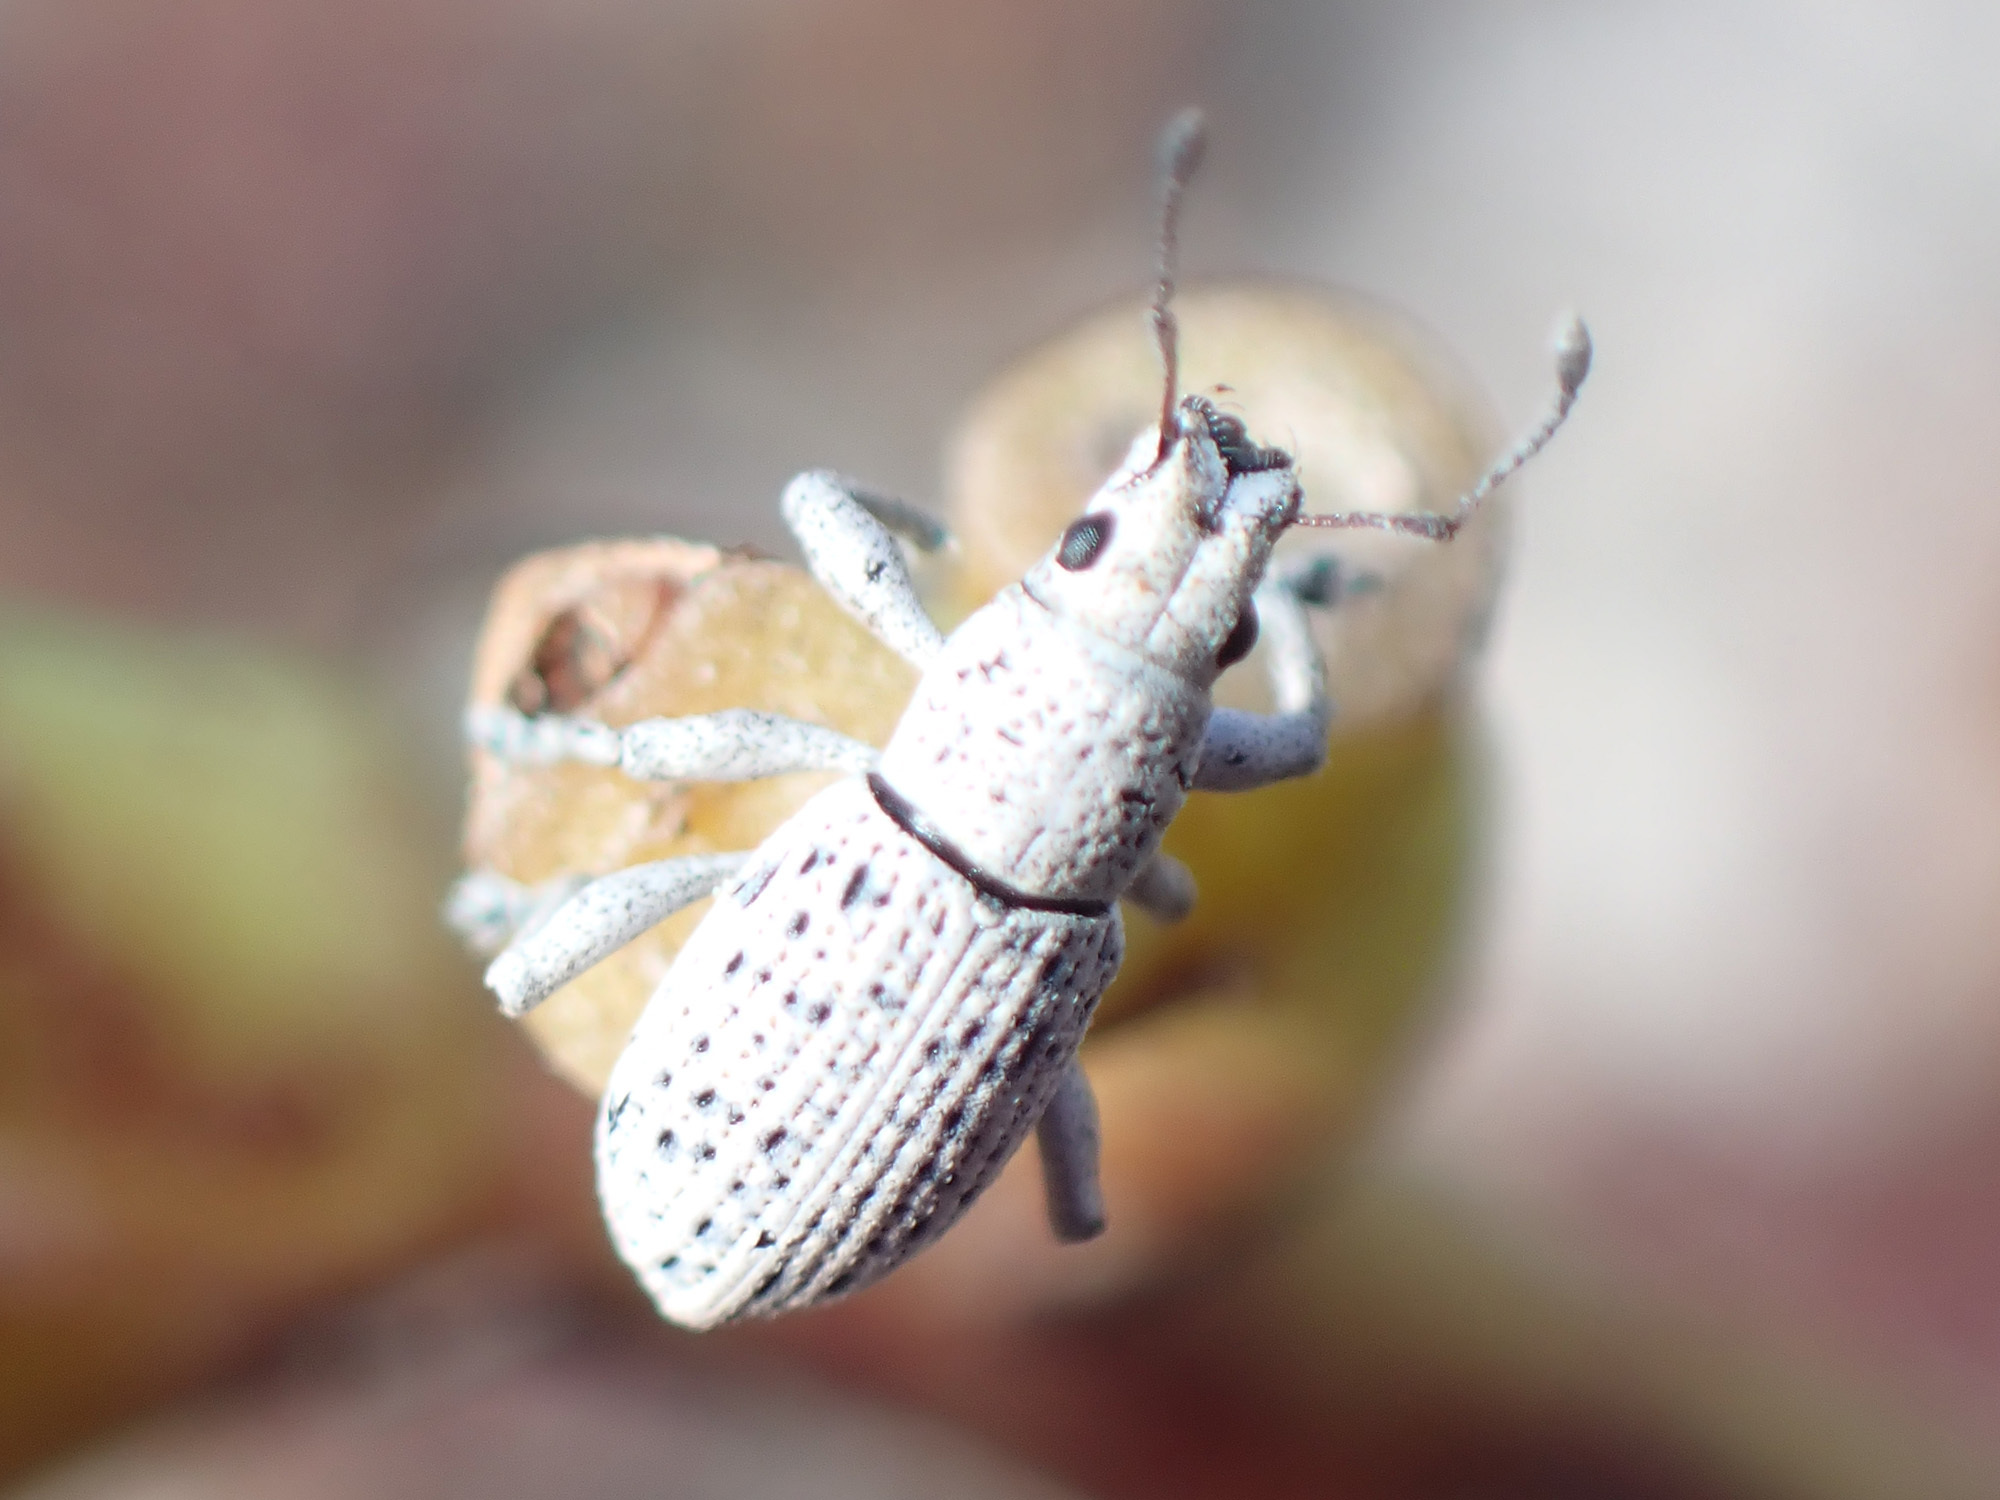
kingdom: Animalia
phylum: Arthropoda
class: Insecta
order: Coleoptera
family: Curculionidae
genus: Artipus
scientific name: Artipus floridanus
